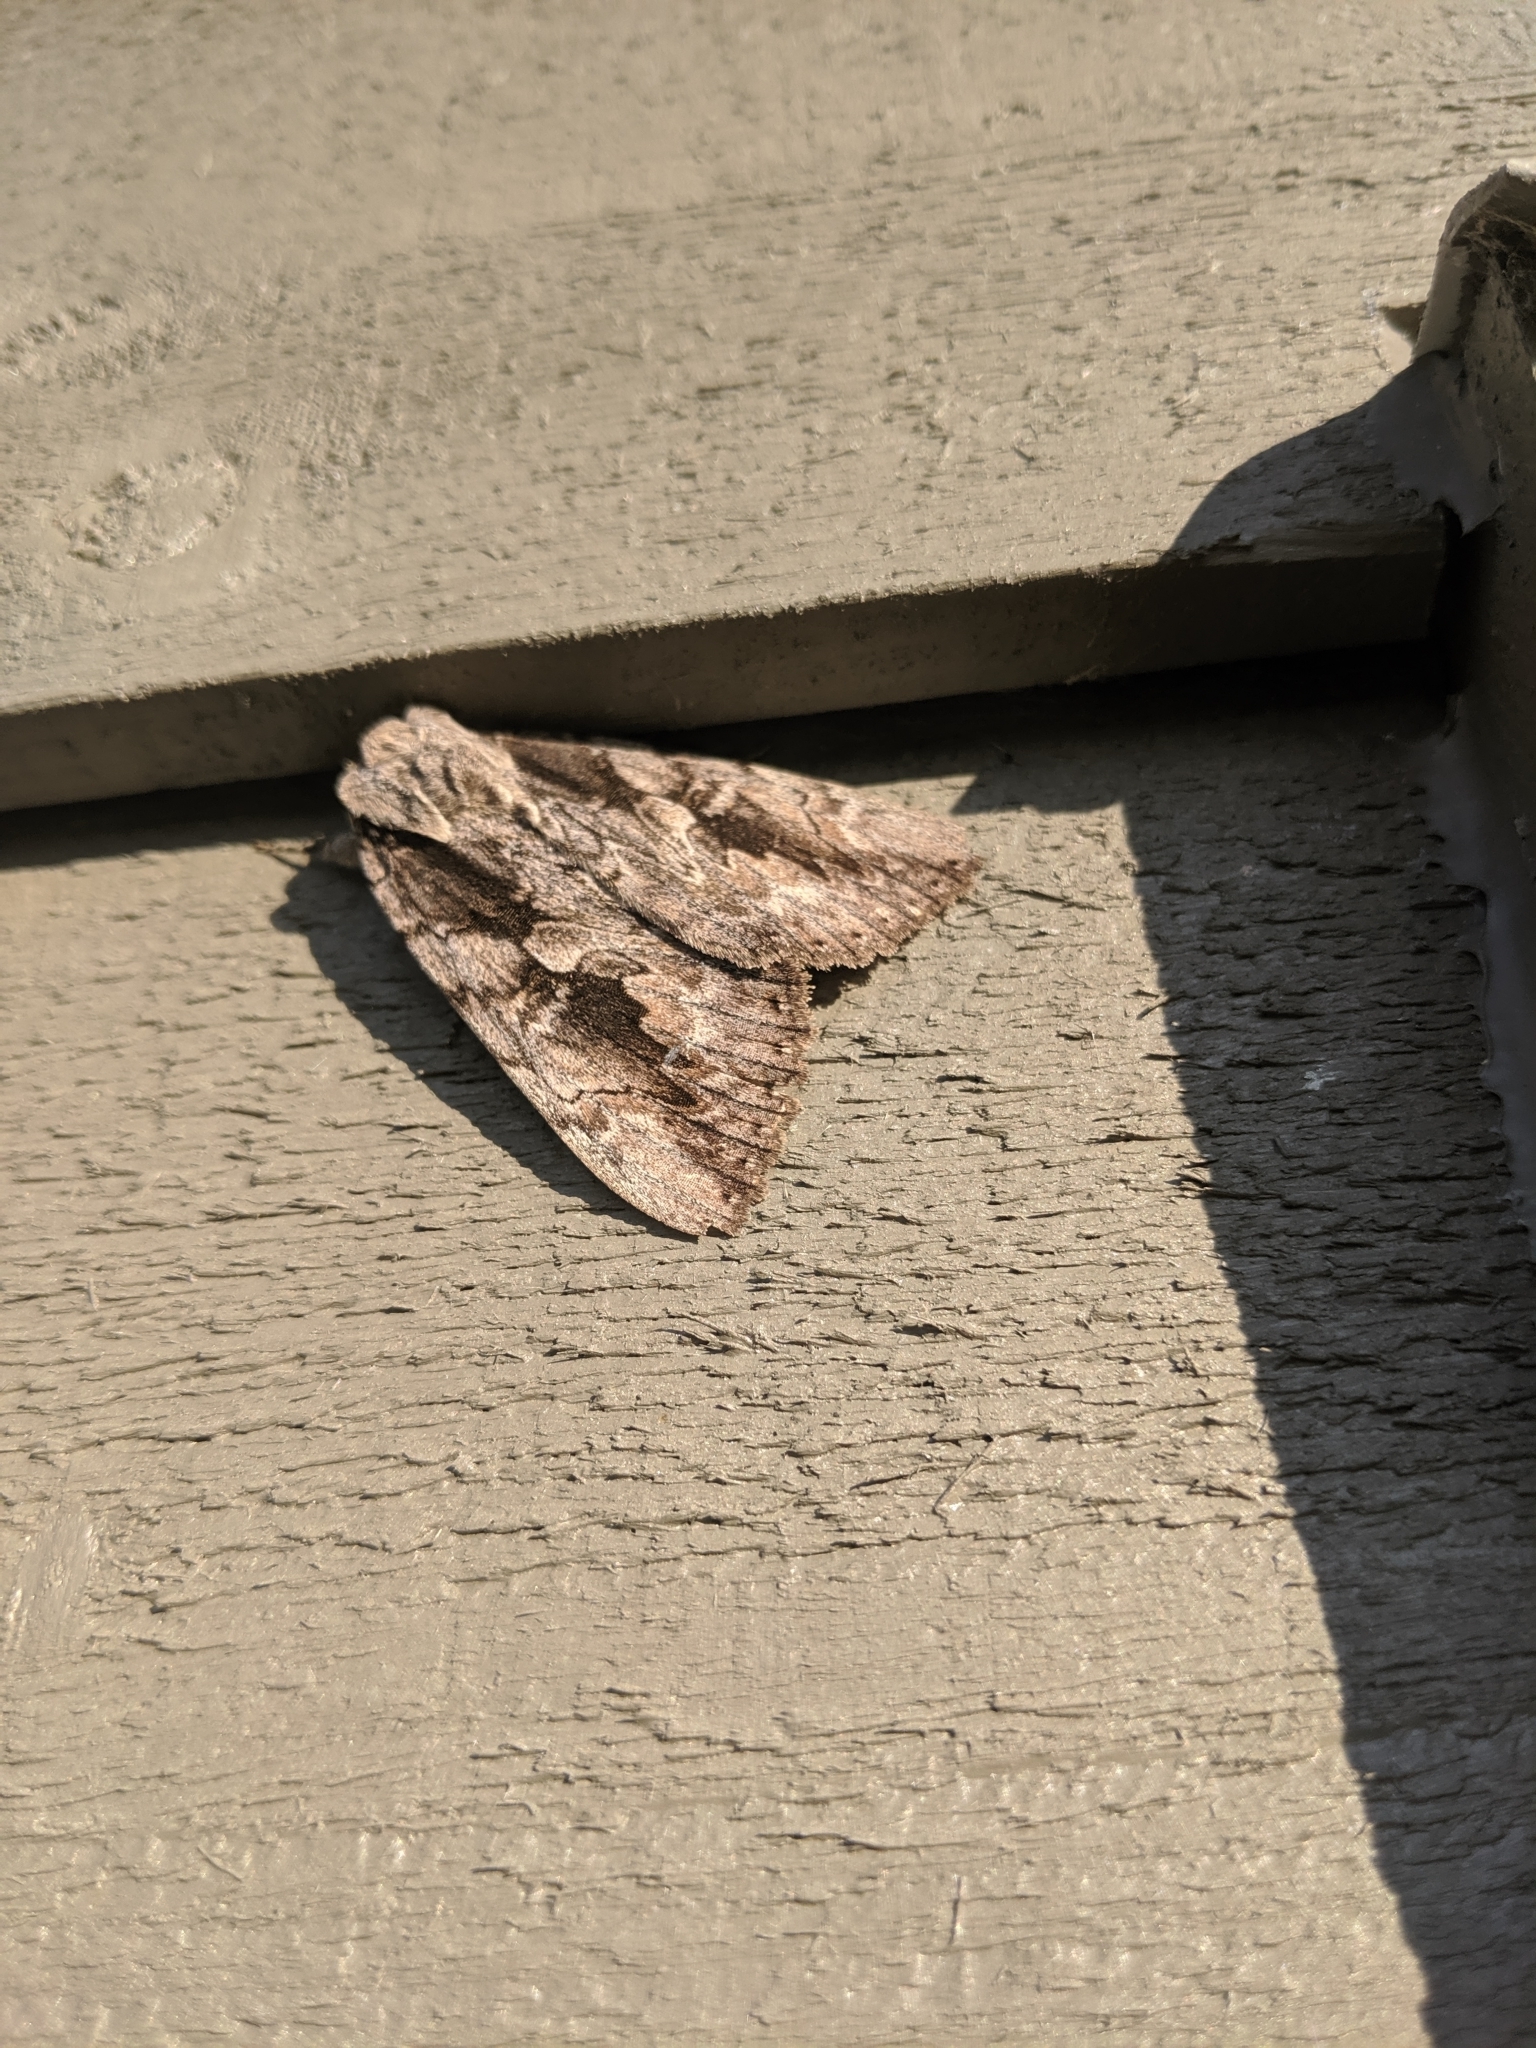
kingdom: Animalia
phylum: Arthropoda
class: Insecta
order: Lepidoptera
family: Erebidae
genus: Catocala
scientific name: Catocala amatrix
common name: Sweetheart underwing
